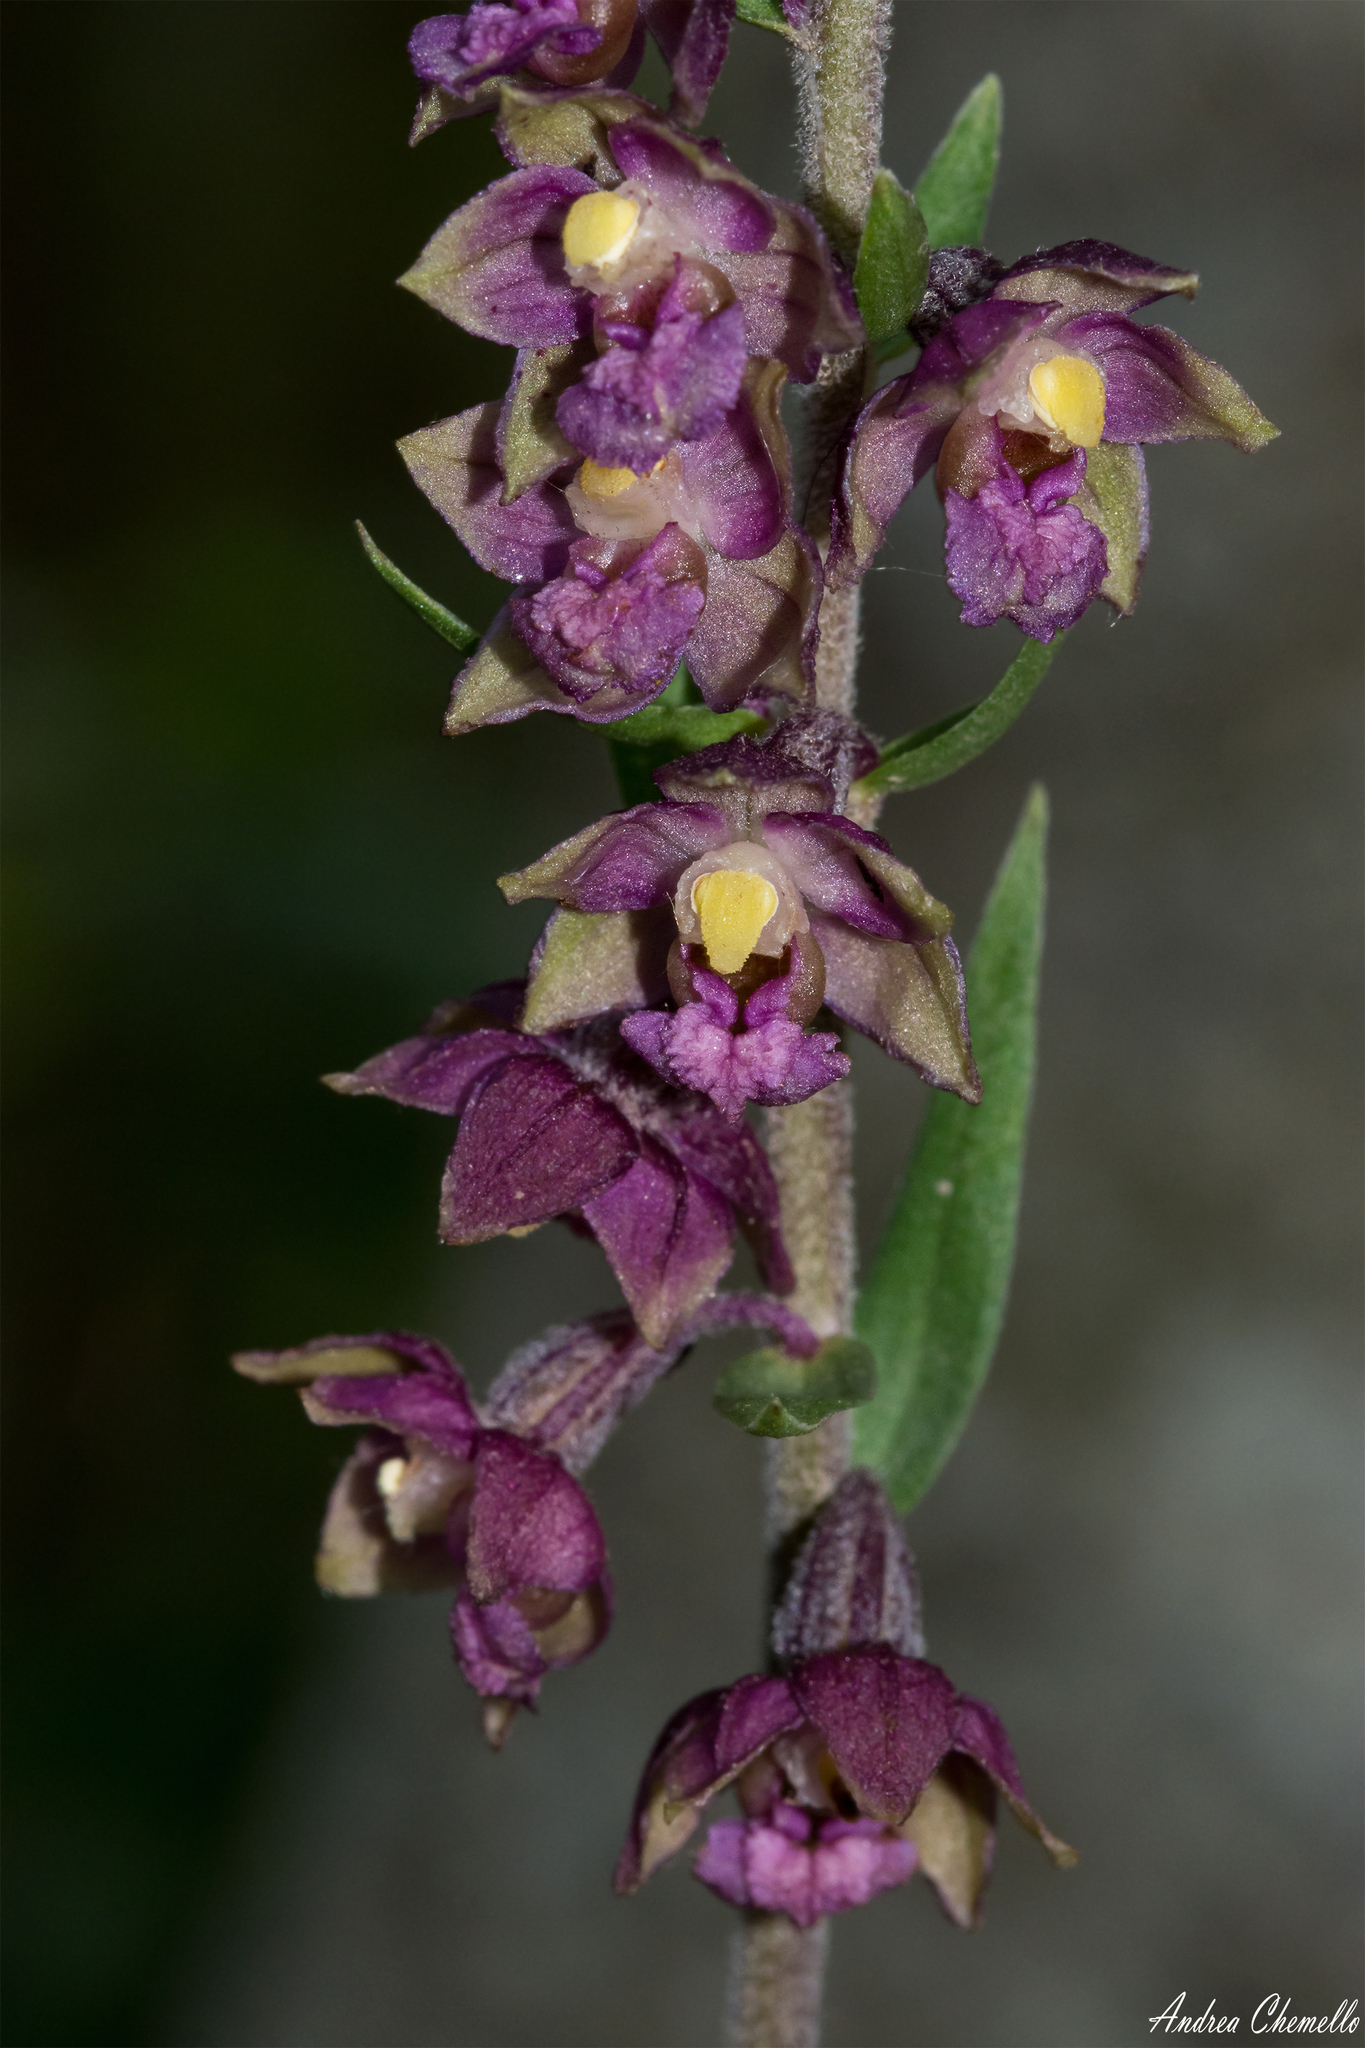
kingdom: Plantae
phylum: Tracheophyta
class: Liliopsida
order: Asparagales
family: Orchidaceae
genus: Epipactis
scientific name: Epipactis atrorubens
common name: Dark-red helleborine
